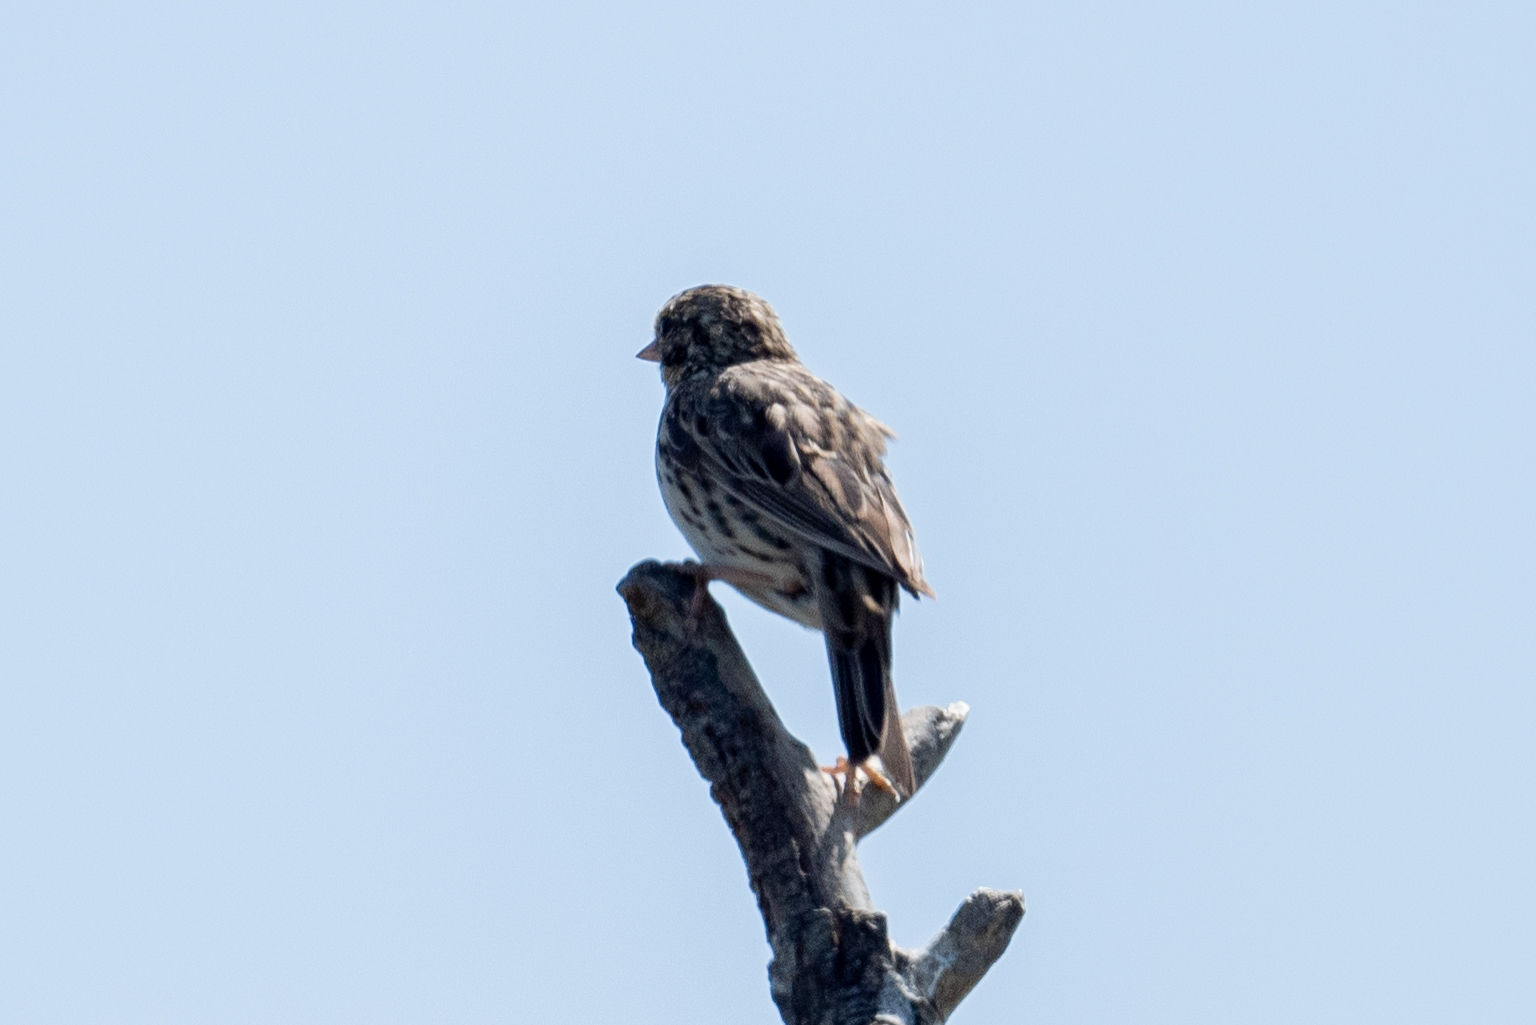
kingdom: Animalia
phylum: Chordata
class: Aves
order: Passeriformes
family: Passerellidae
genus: Passerculus
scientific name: Passerculus sandwichensis
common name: Savannah sparrow
